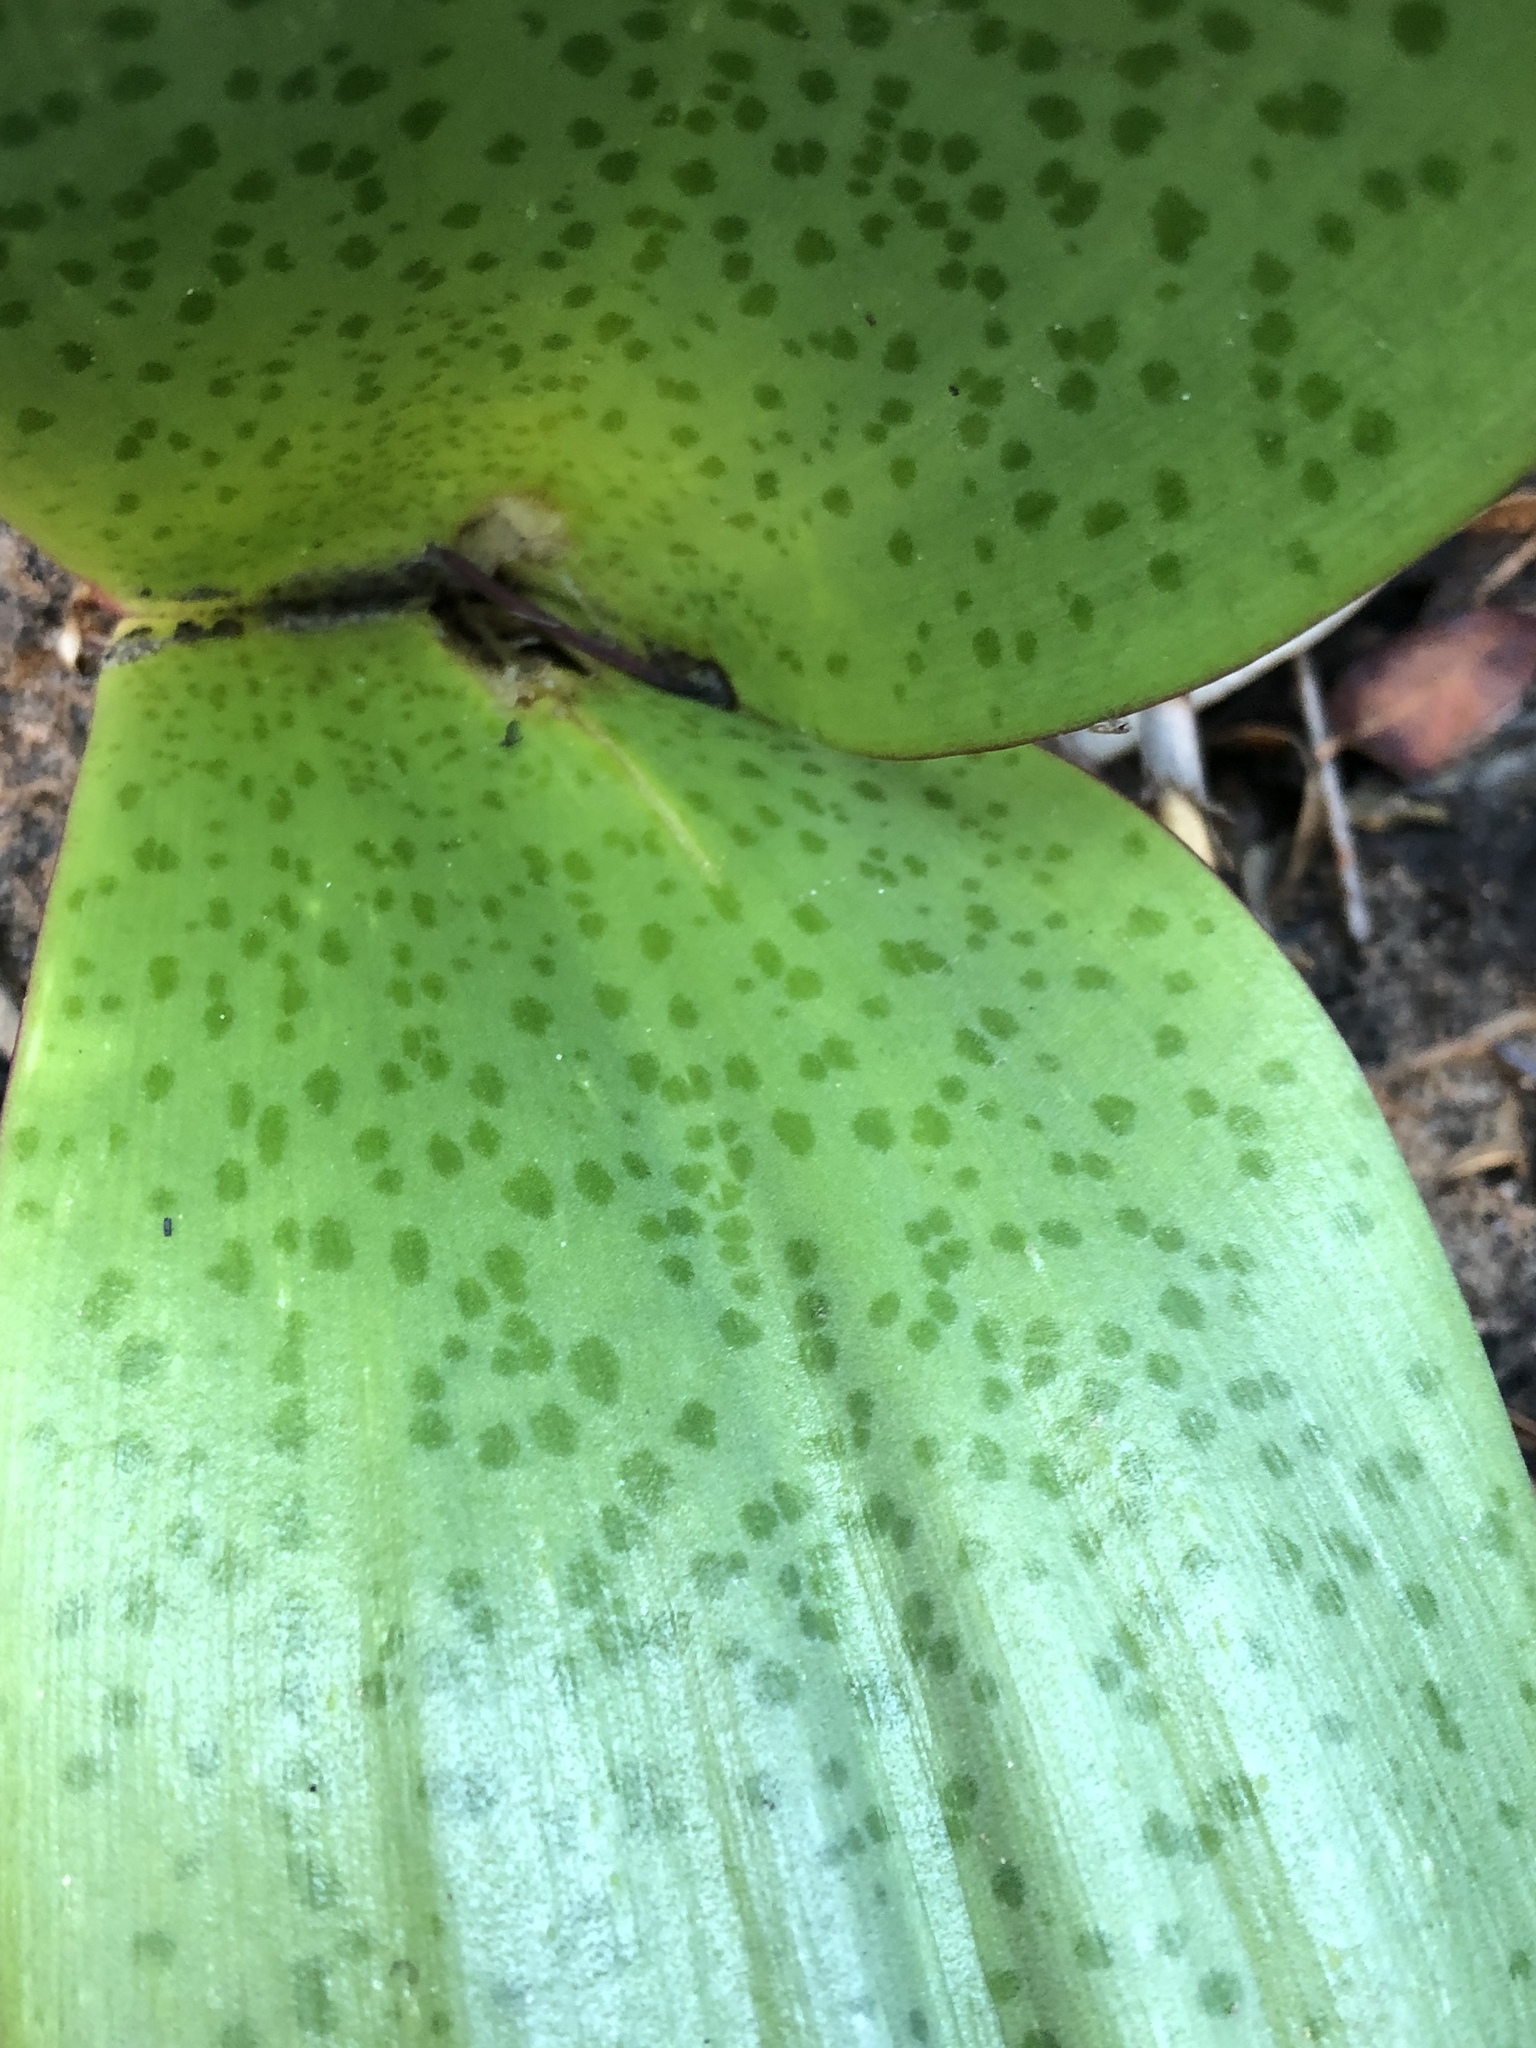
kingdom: Plantae
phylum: Tracheophyta
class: Liliopsida
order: Asparagales
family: Amaryllidaceae
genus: Haemanthus
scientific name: Haemanthus coccineus
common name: Cape-tulip
